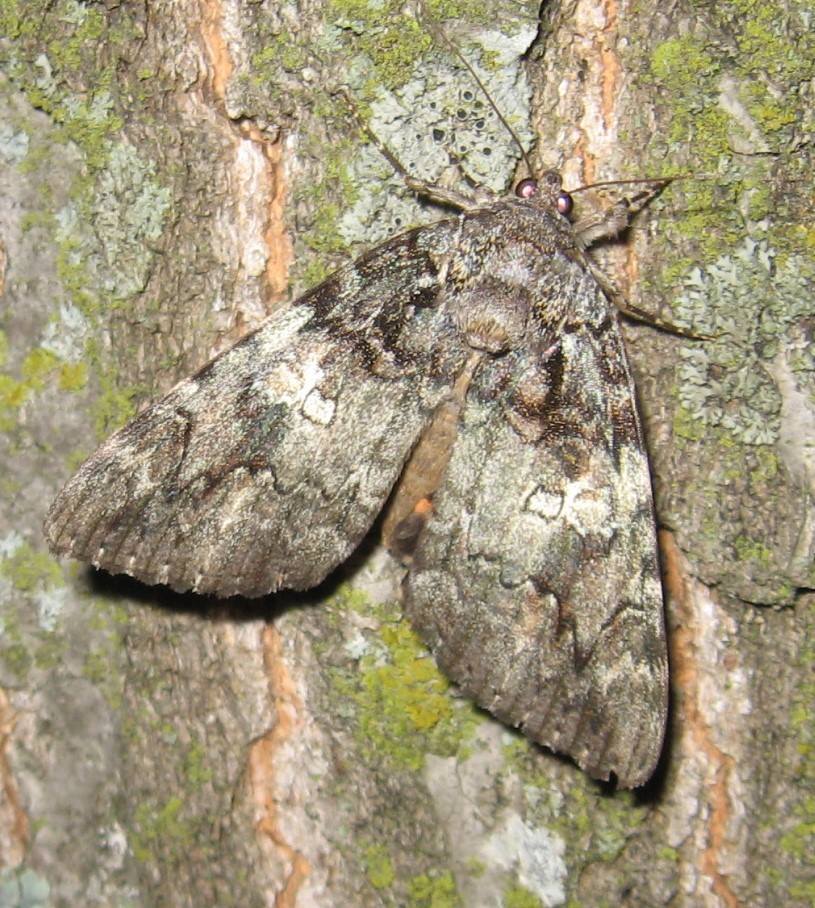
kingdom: Animalia
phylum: Arthropoda
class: Insecta
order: Lepidoptera
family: Erebidae
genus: Catocala
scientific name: Catocala ilia
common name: Ilia underwing
